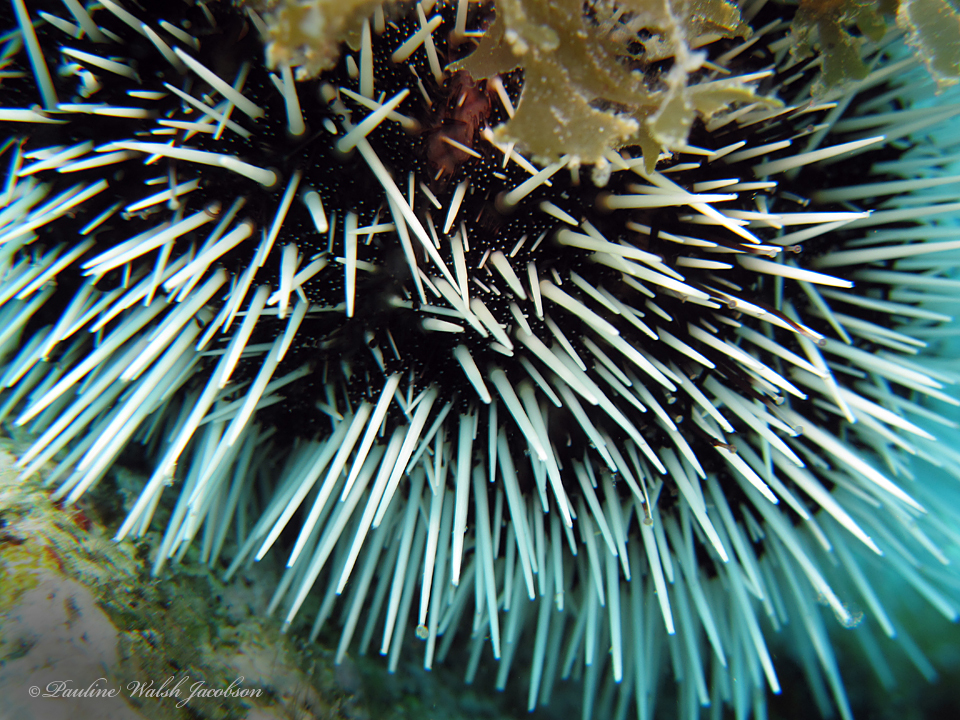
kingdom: Animalia
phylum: Echinodermata
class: Echinoidea
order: Camarodonta
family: Toxopneustidae
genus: Tripneustes
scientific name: Tripneustes ventricosus
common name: West indian sea egg
